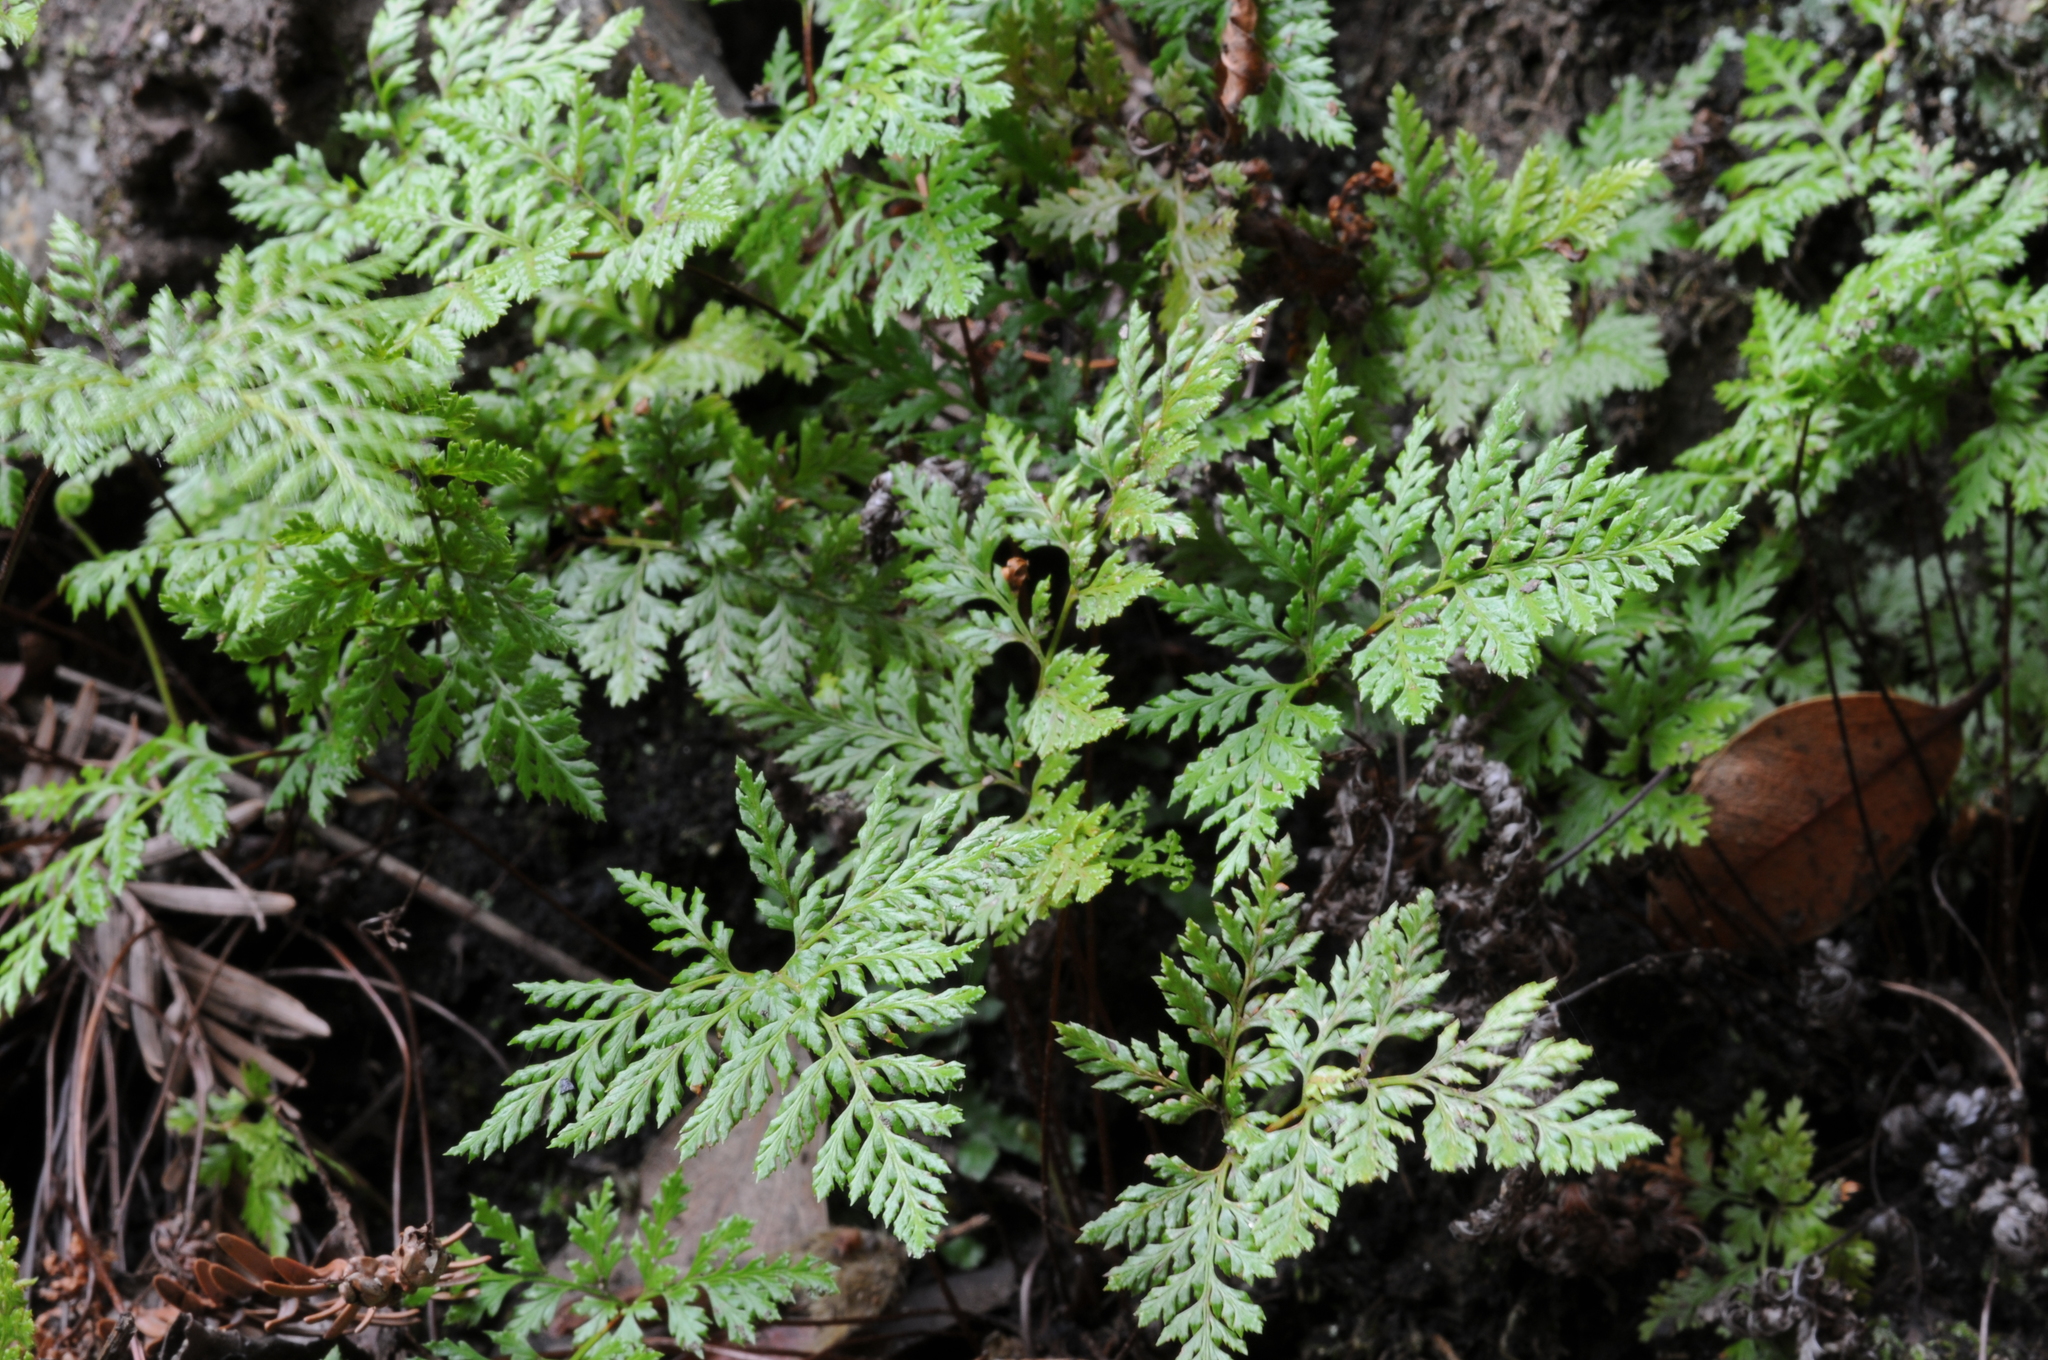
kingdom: Plantae
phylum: Tracheophyta
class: Polypodiopsida
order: Polypodiales
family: Pteridaceae
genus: Aspidotis
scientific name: Aspidotis californica
